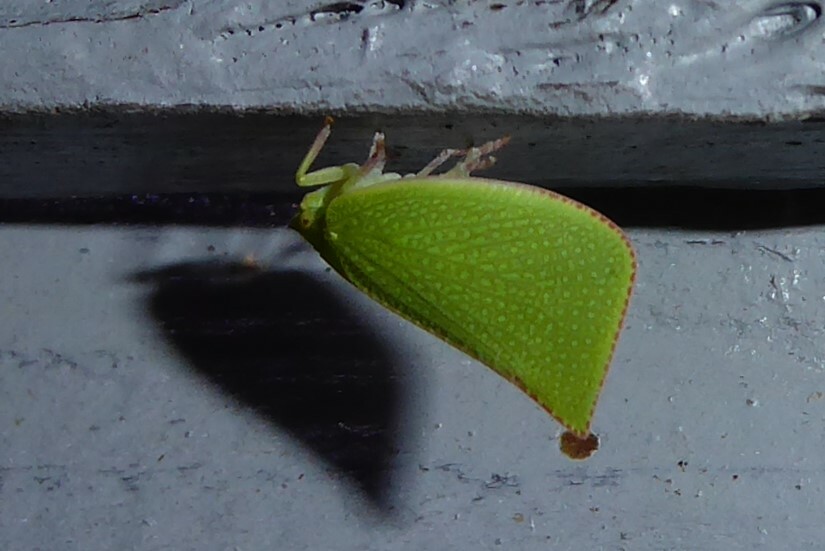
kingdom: Animalia
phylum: Arthropoda
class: Insecta
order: Hemiptera
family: Flatidae
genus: Siphanta
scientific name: Siphanta acuta
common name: Torpedo bug
